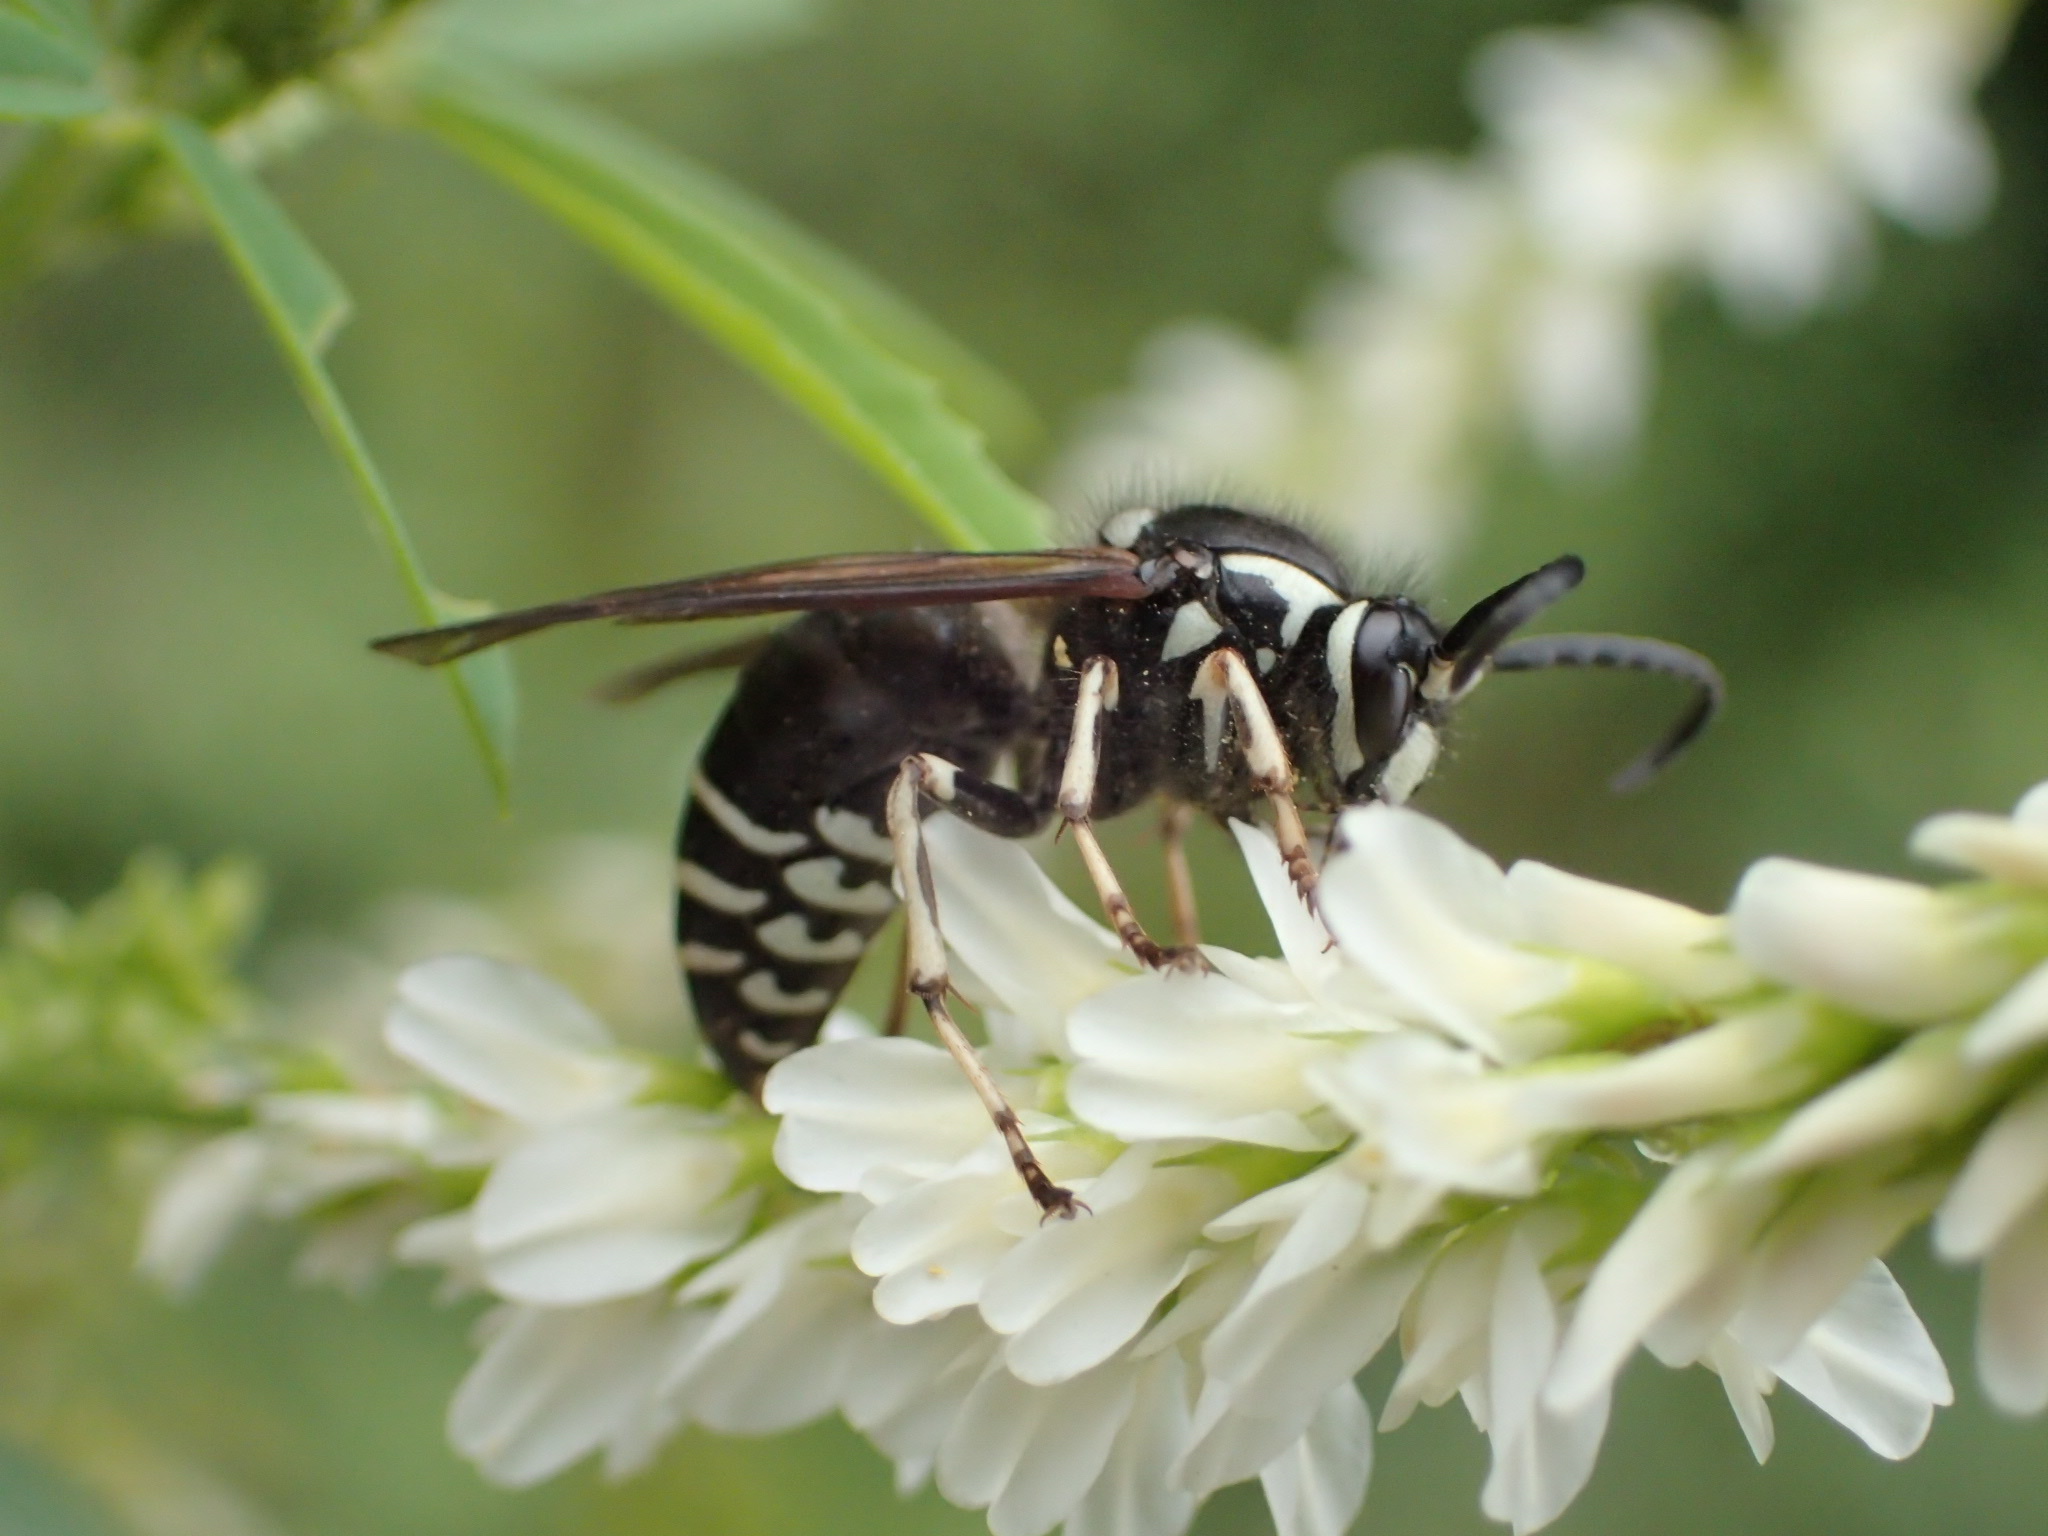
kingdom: Animalia
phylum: Arthropoda
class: Insecta
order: Hymenoptera
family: Vespidae
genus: Dolichovespula
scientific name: Dolichovespula adulterina
